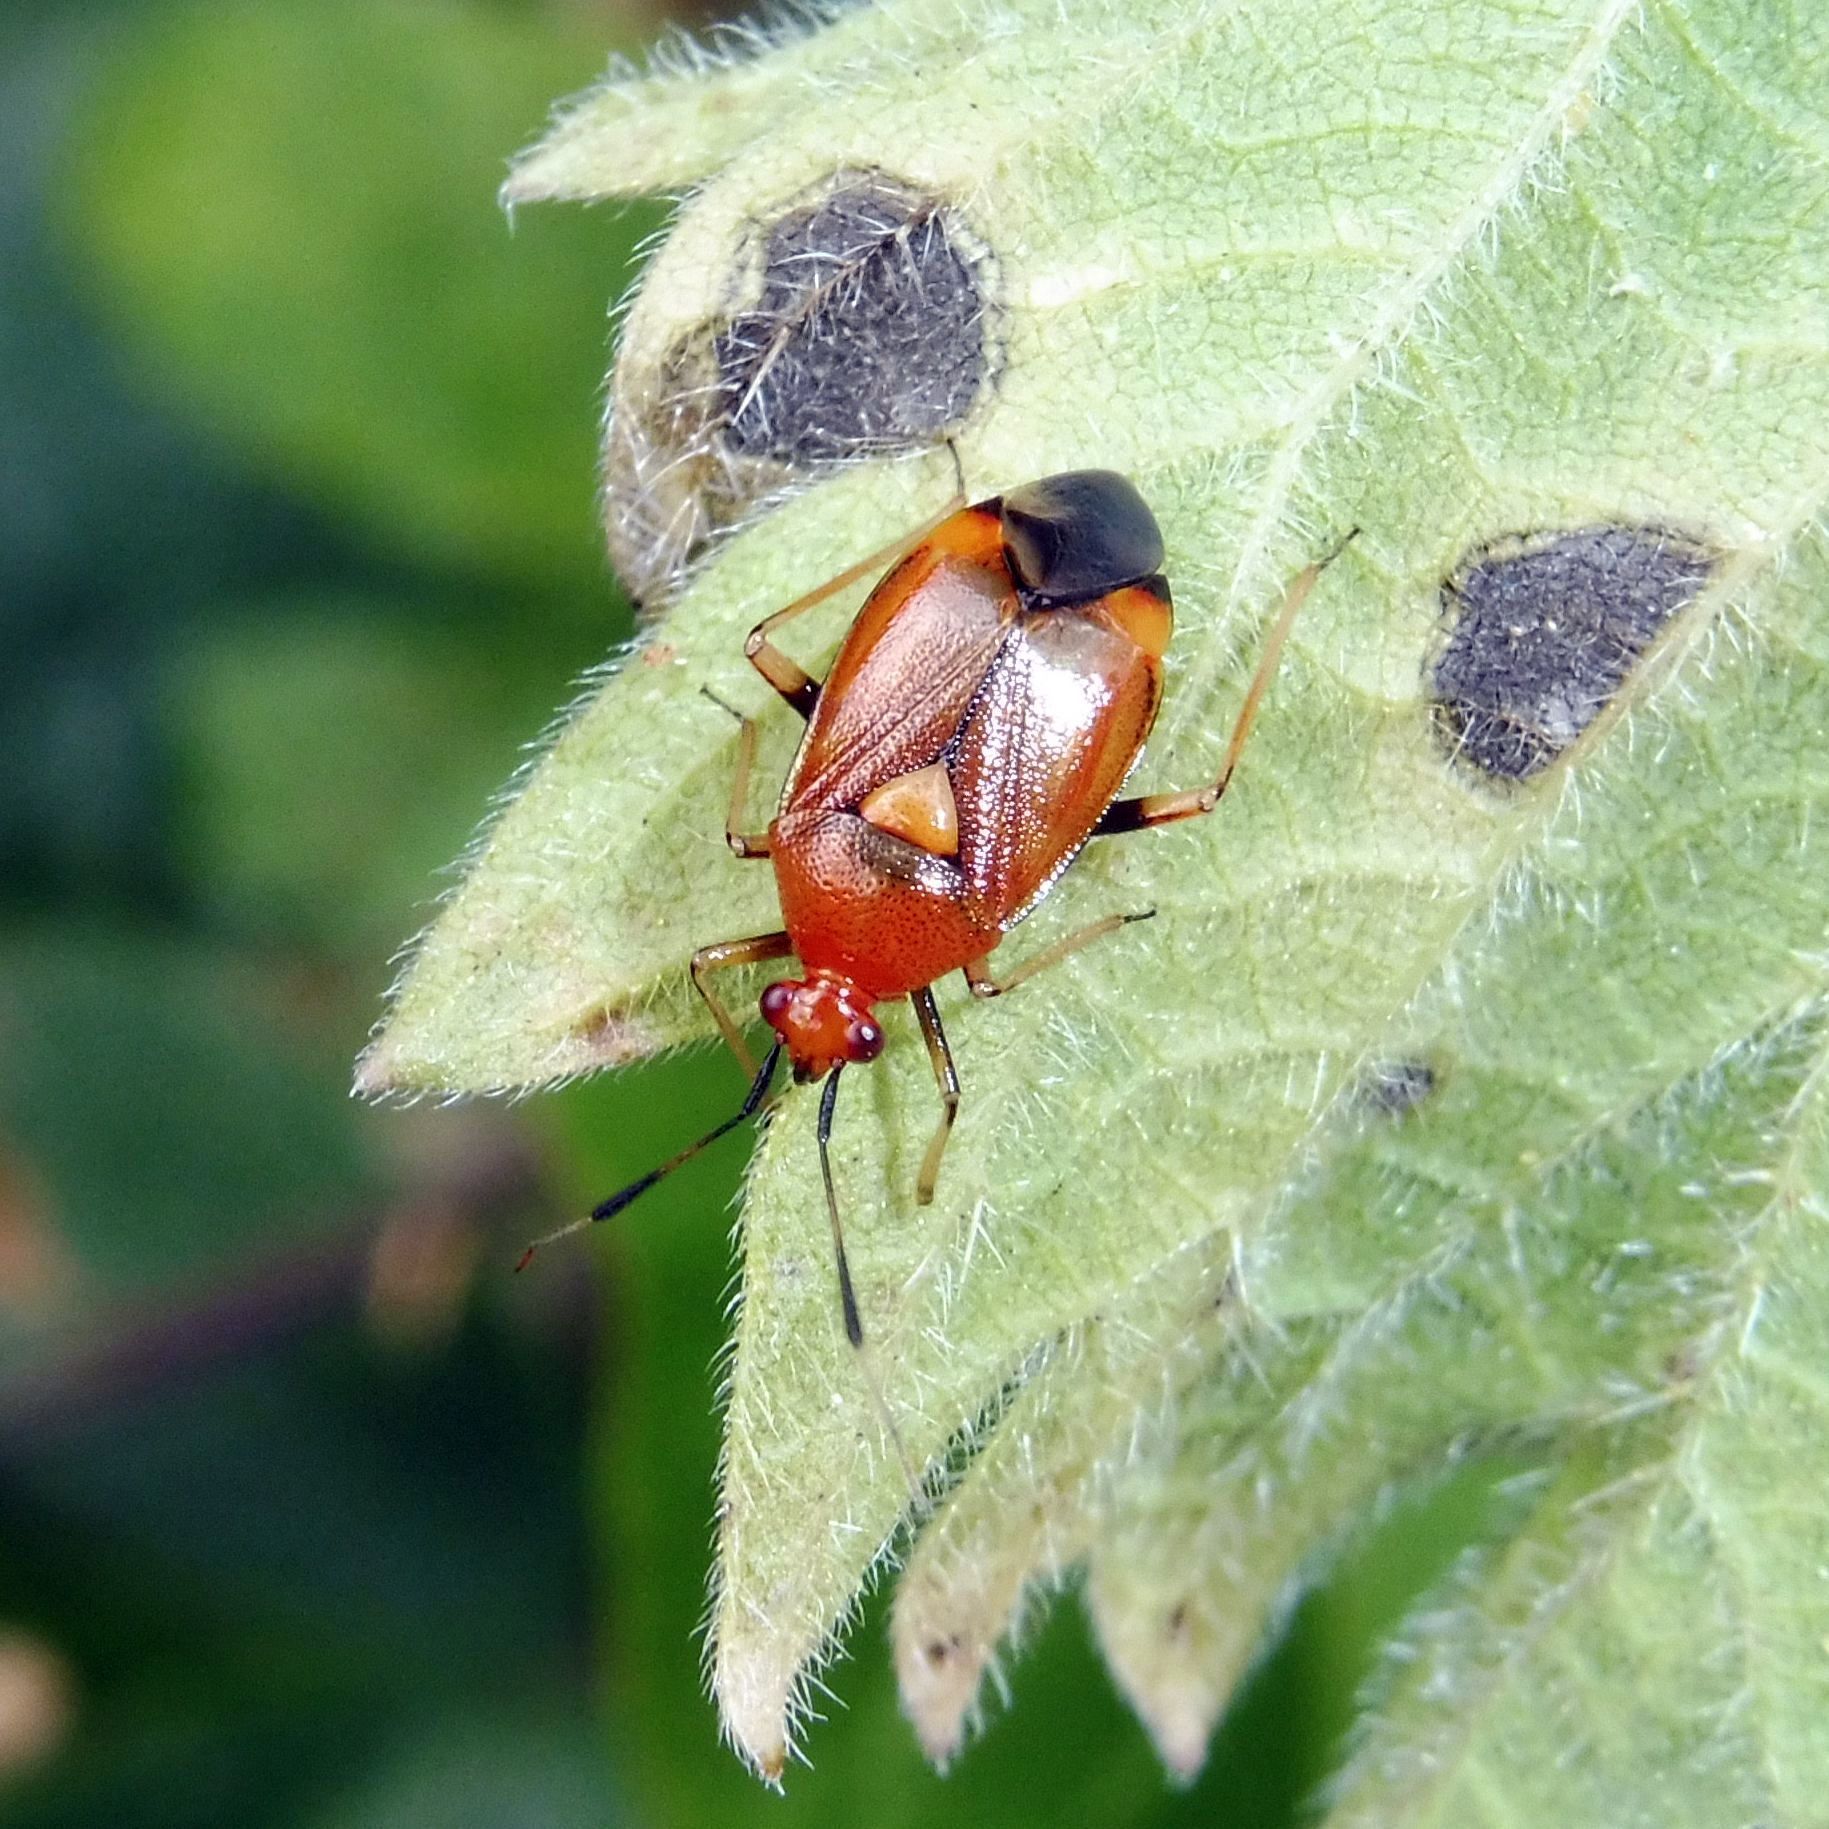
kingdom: Animalia
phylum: Arthropoda
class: Insecta
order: Hemiptera
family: Miridae
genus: Deraeocoris
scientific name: Deraeocoris ruber
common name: Plant bug
